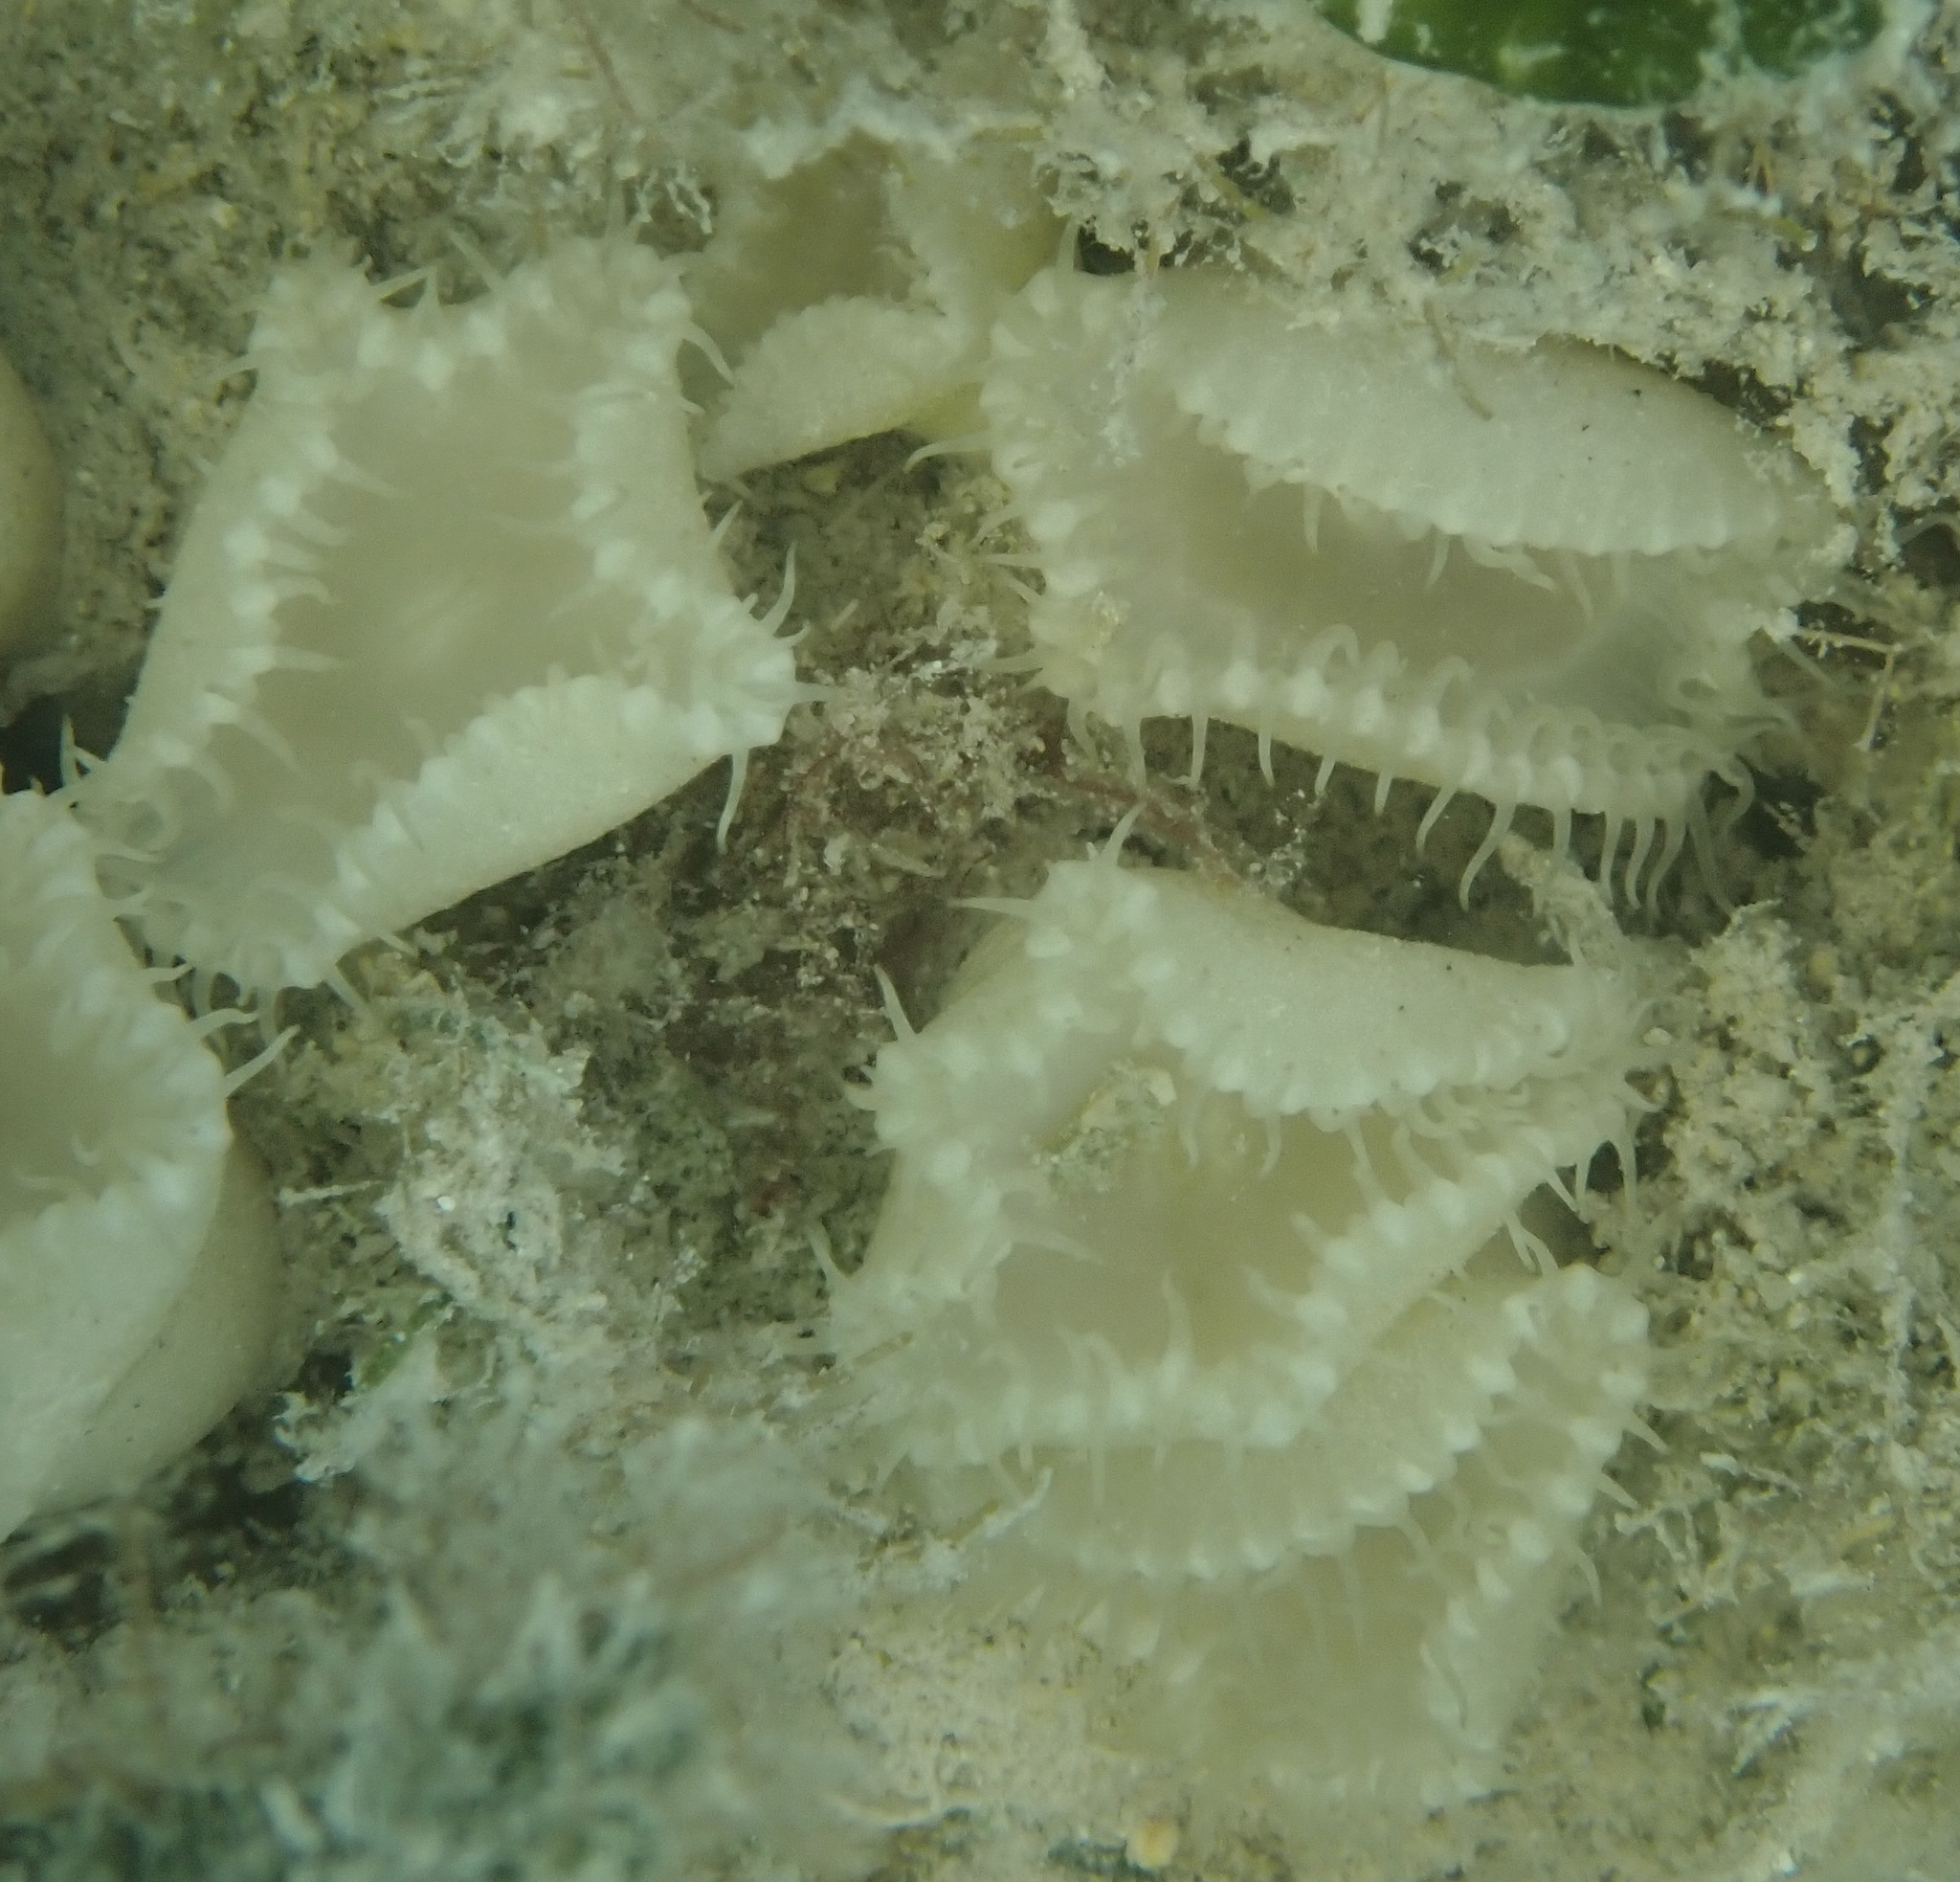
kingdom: Animalia
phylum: Cnidaria
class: Anthozoa
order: Zoantharia
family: Sphenopidae
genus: Palythoa
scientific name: Palythoa grandiflora
